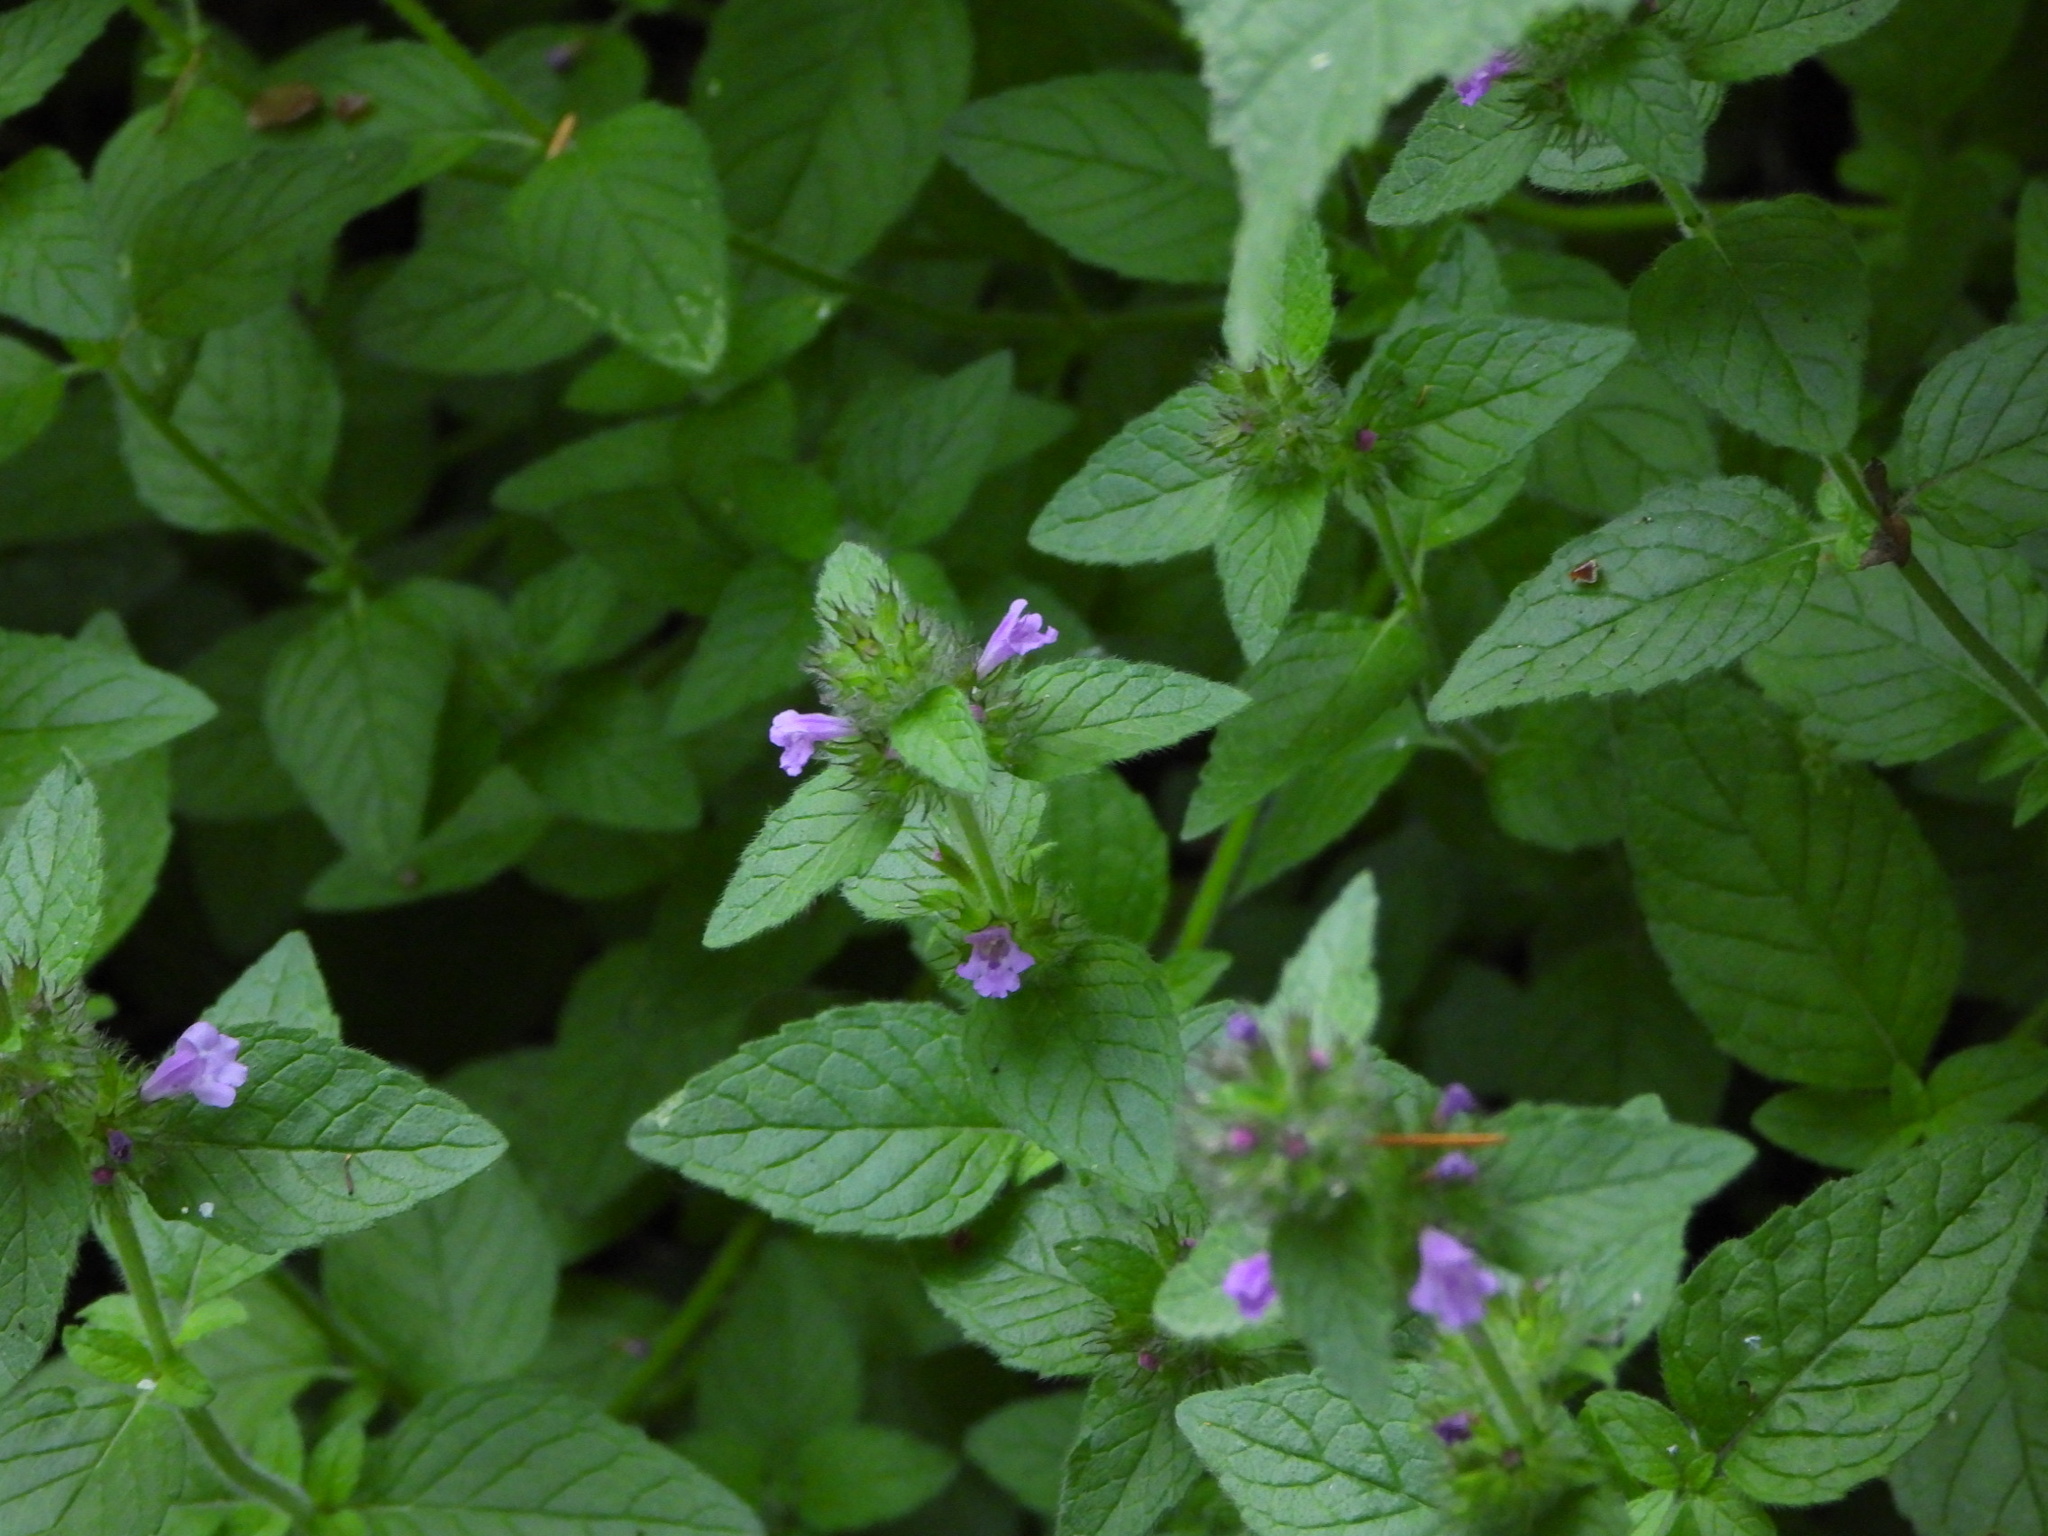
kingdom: Plantae
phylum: Tracheophyta
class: Magnoliopsida
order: Lamiales
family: Lamiaceae
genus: Clinopodium
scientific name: Clinopodium vulgare
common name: Wild basil
